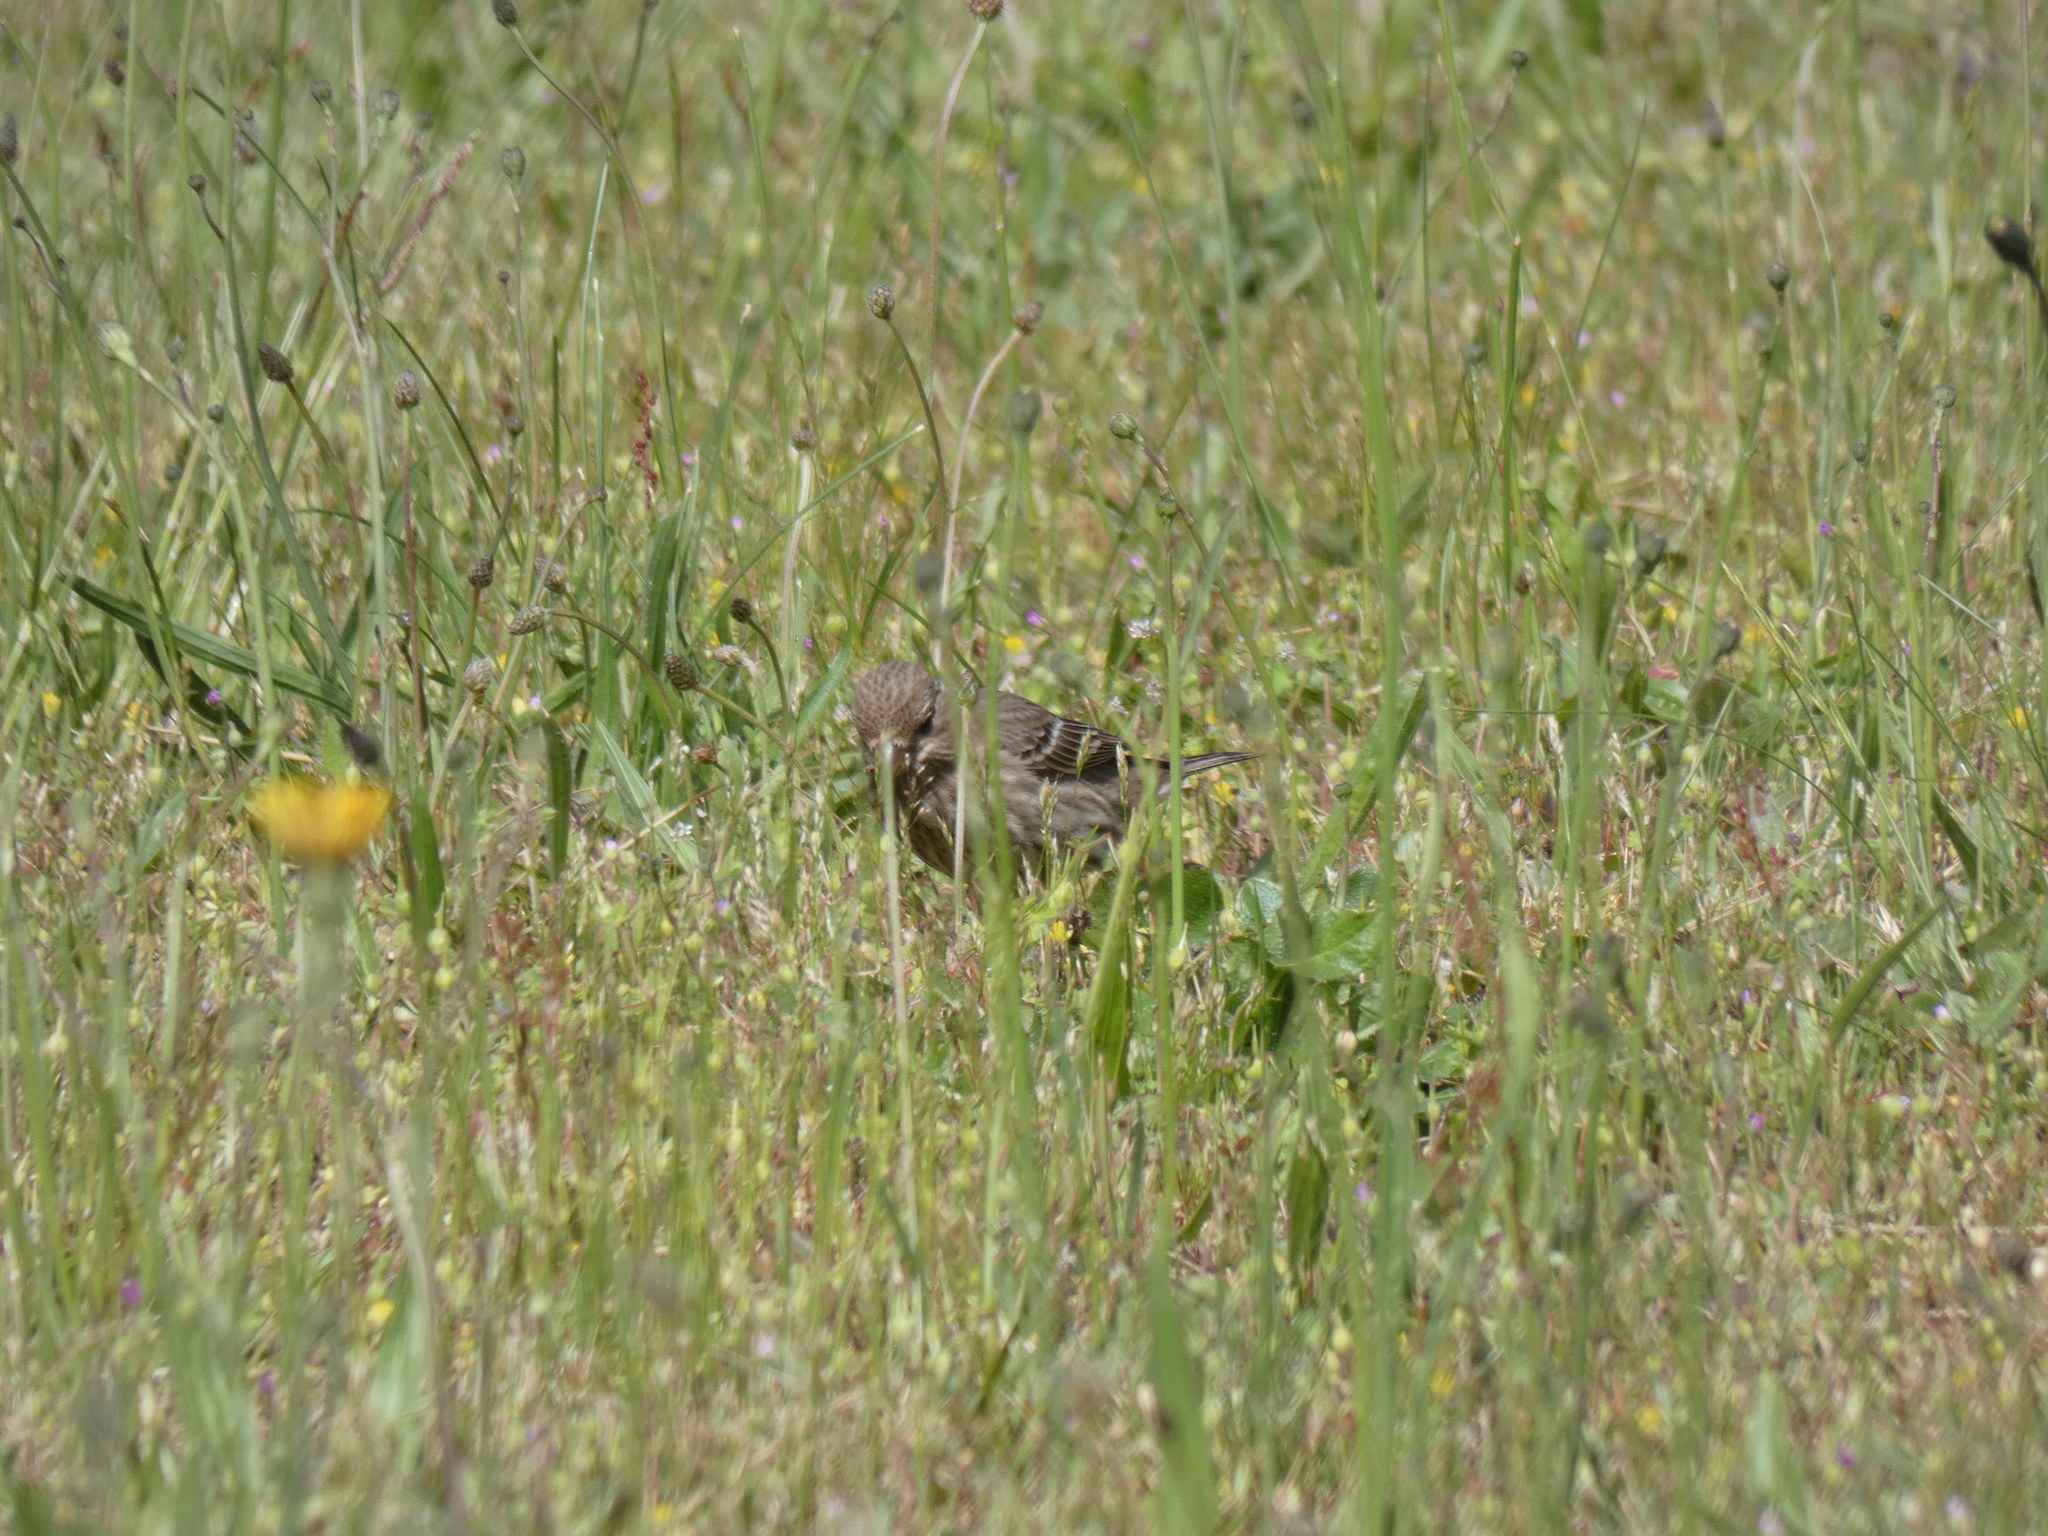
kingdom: Animalia
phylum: Chordata
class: Aves
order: Passeriformes
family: Fringillidae
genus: Haemorhous
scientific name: Haemorhous mexicanus
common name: House finch
